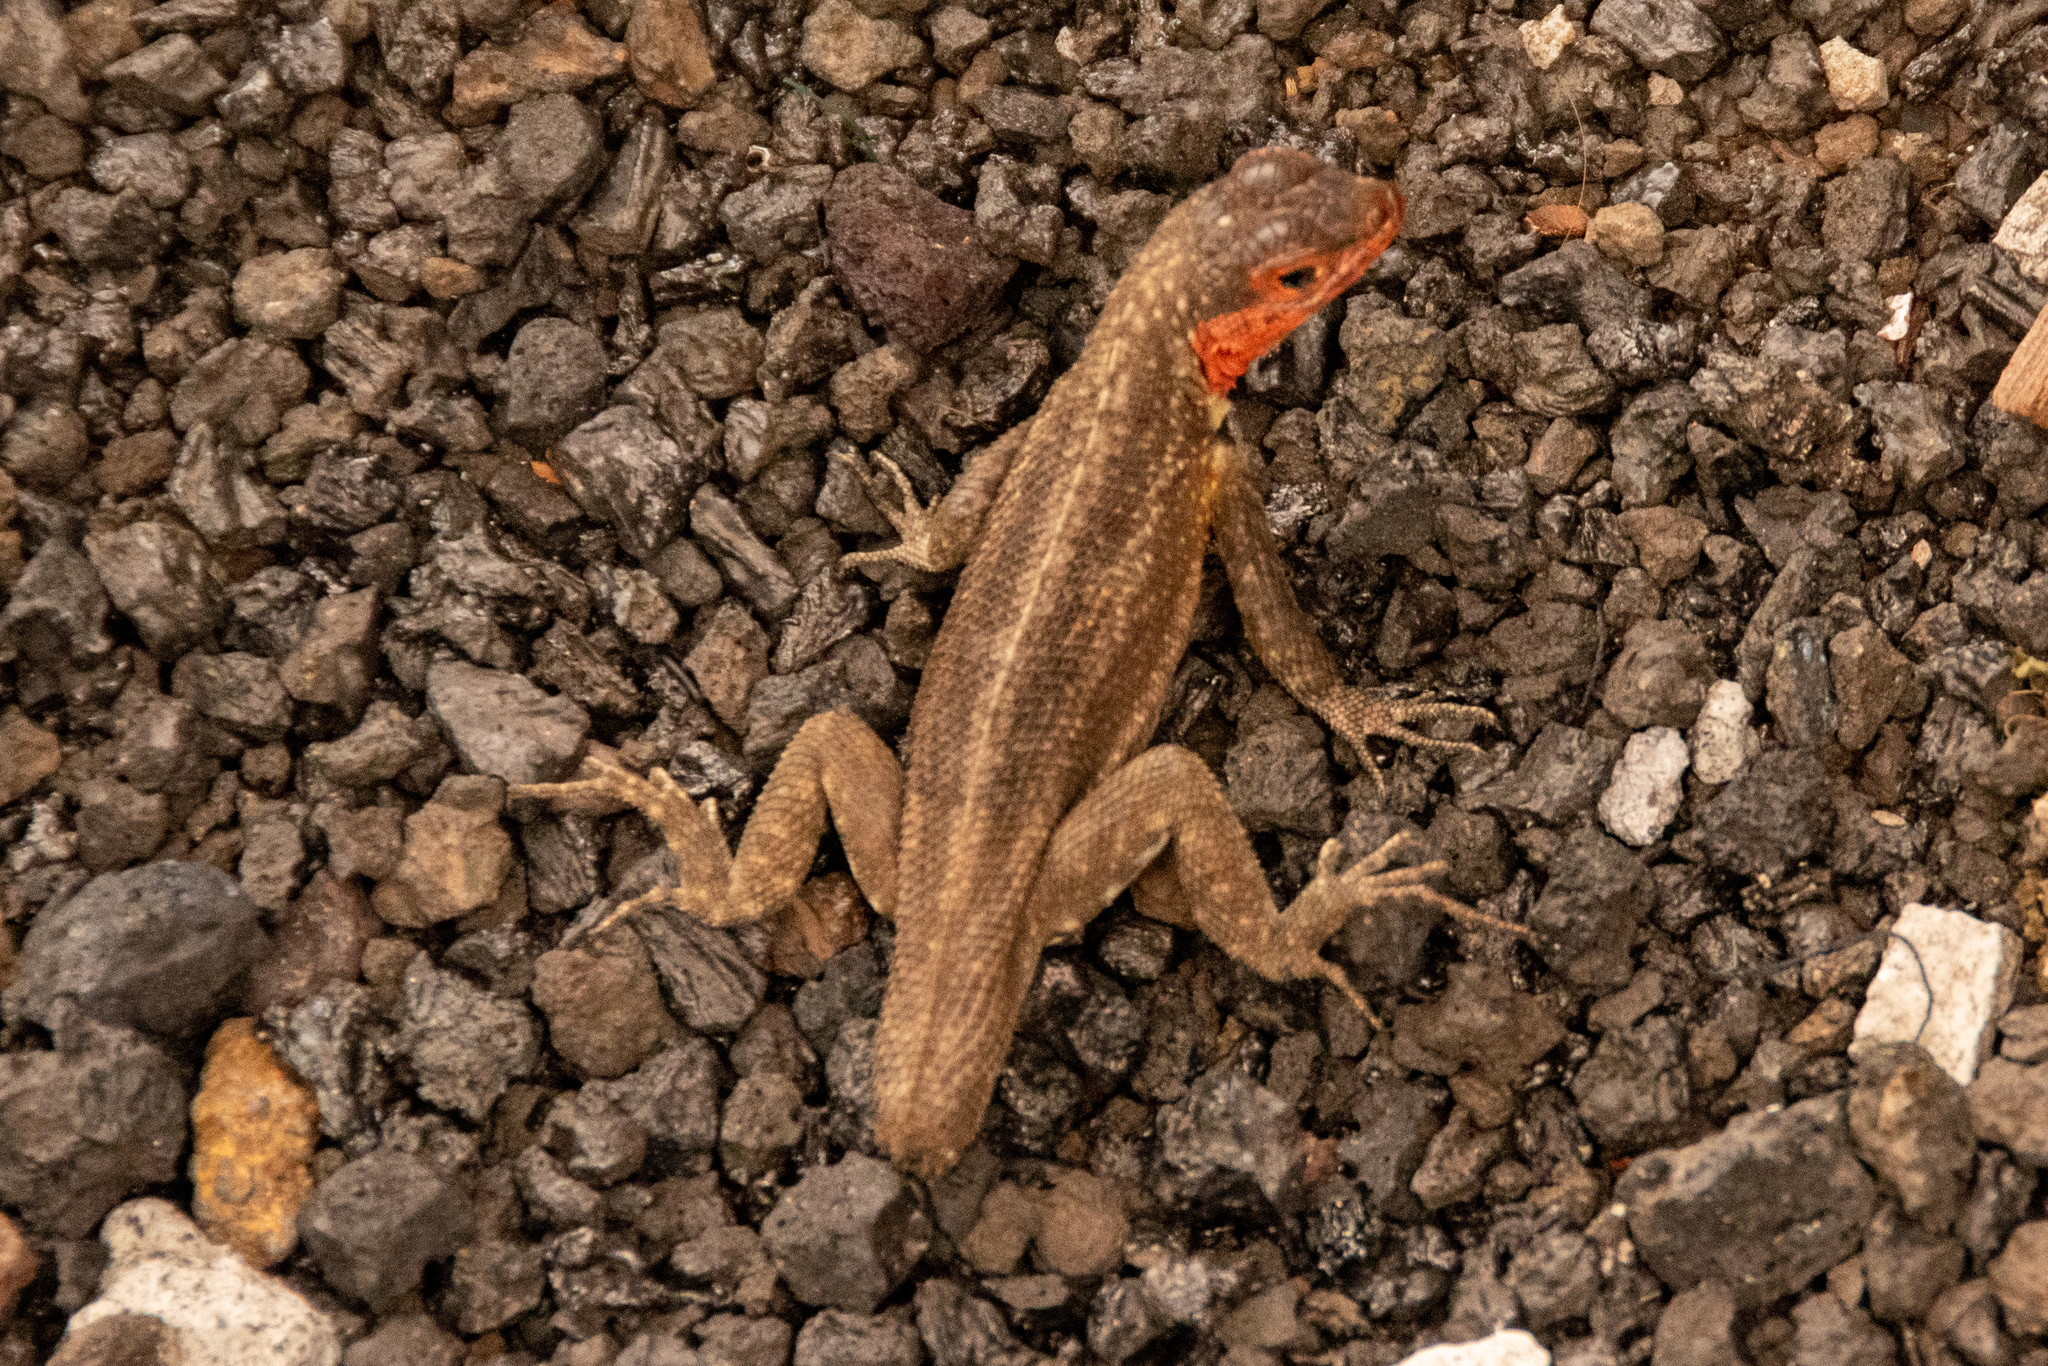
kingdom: Animalia
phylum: Chordata
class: Squamata
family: Tropiduridae
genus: Microlophus
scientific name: Microlophus indefatigabilis
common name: Galapagos lava lizard
